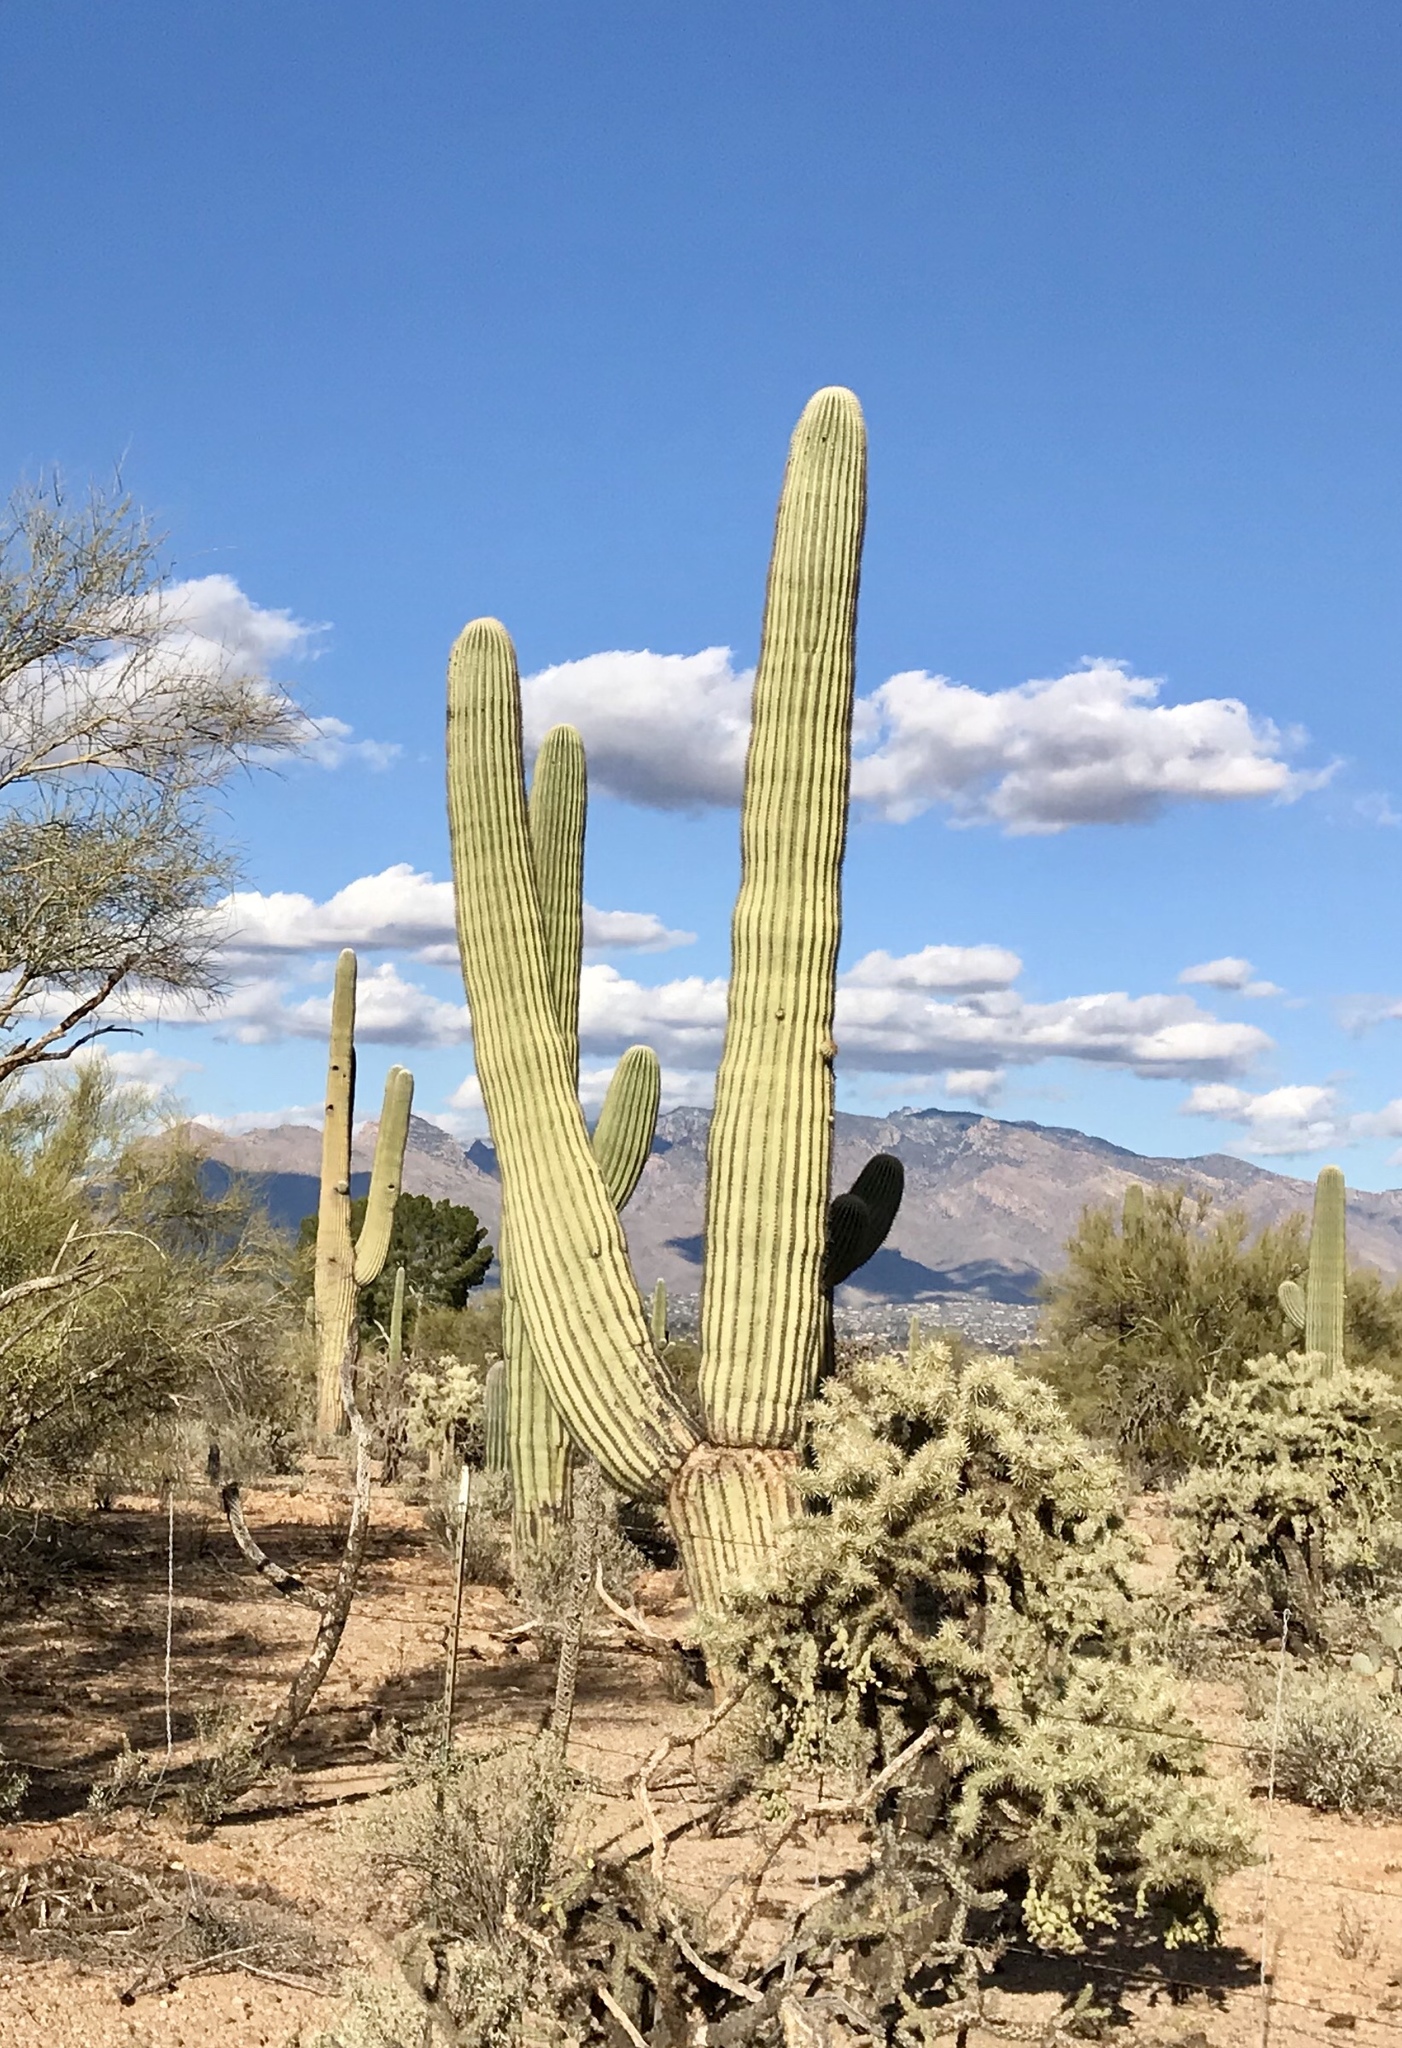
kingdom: Plantae
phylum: Tracheophyta
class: Magnoliopsida
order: Caryophyllales
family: Cactaceae
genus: Carnegiea
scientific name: Carnegiea gigantea
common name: Saguaro
